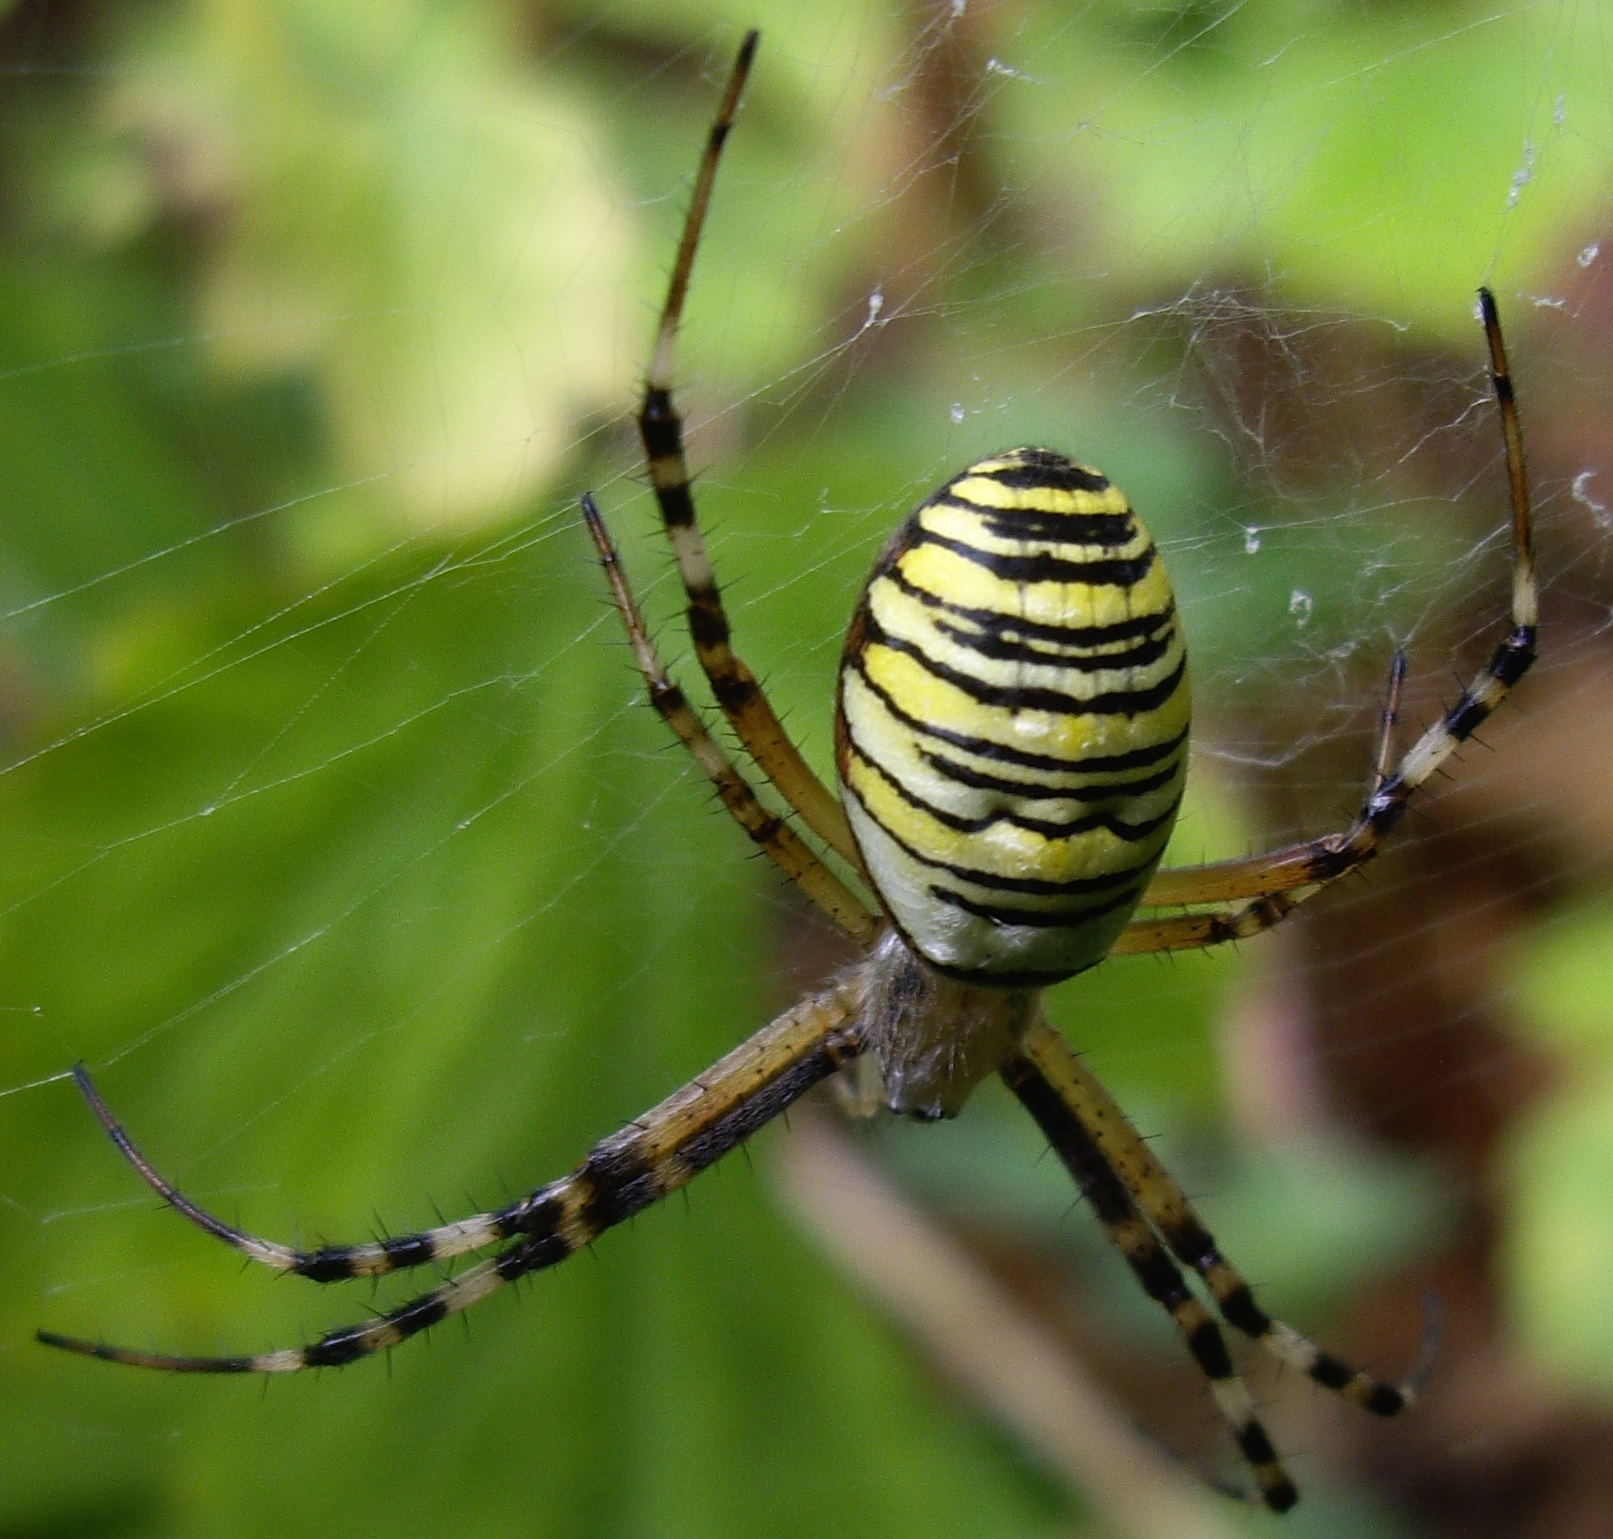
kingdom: Animalia
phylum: Arthropoda
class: Arachnida
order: Araneae
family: Araneidae
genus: Argiope
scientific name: Argiope bruennichi
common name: Wasp spider
